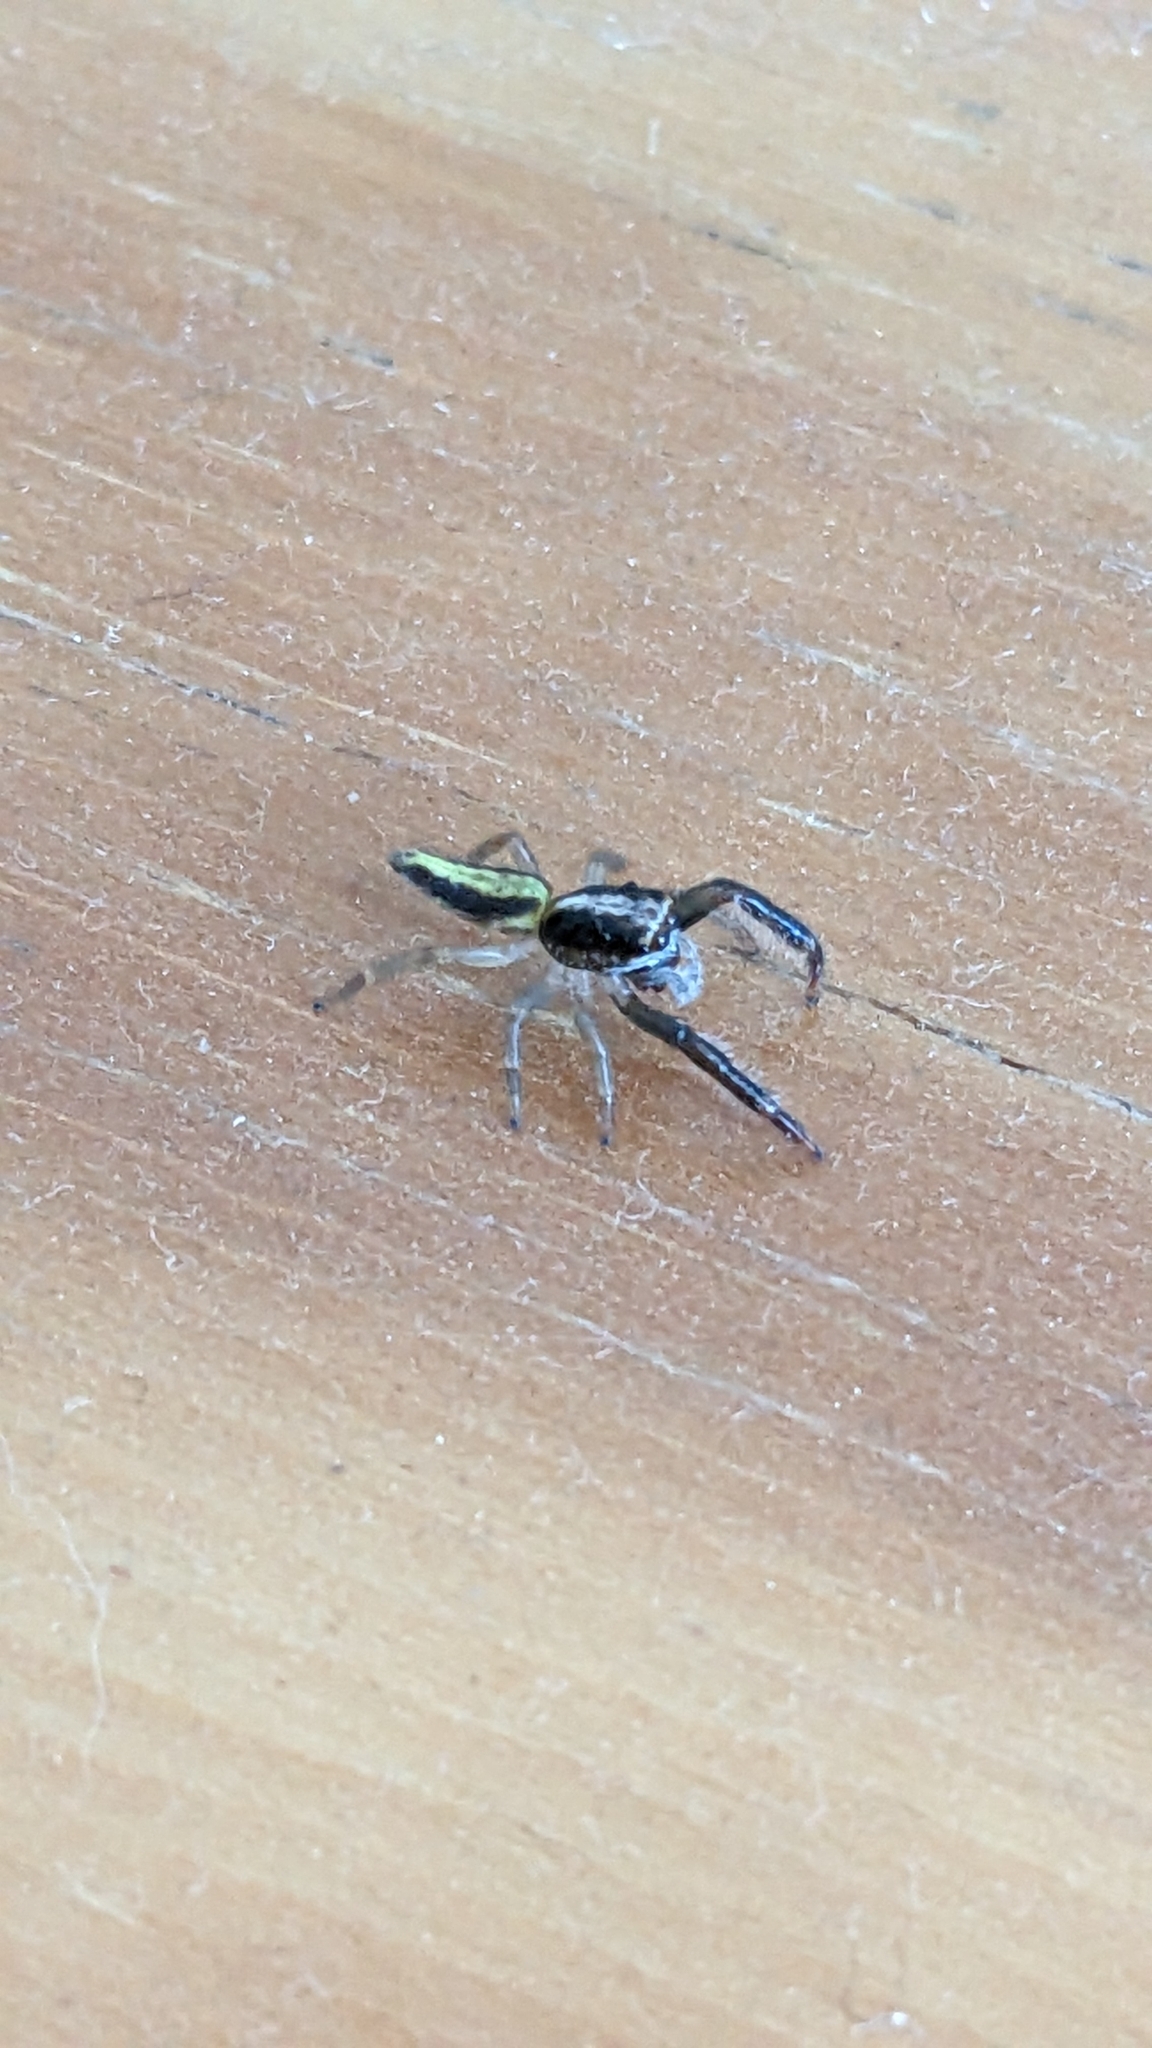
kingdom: Animalia
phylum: Arthropoda
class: Arachnida
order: Araneae
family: Salticidae
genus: Trite
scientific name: Trite planiceps
